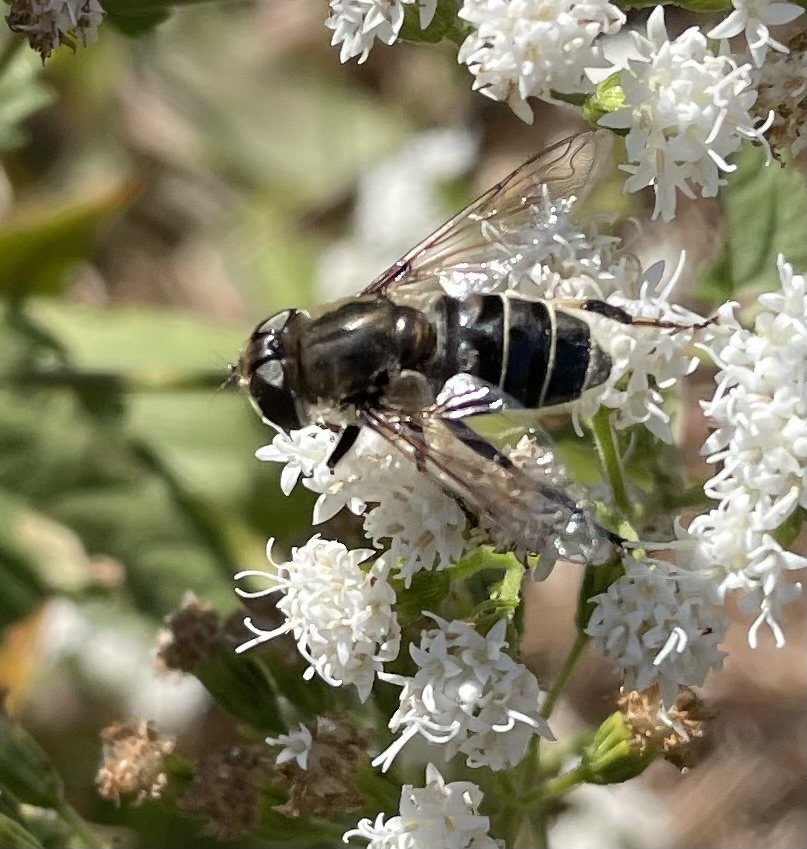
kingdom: Animalia
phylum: Arthropoda
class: Insecta
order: Diptera
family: Syrphidae
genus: Eristalis
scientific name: Eristalis dimidiata
